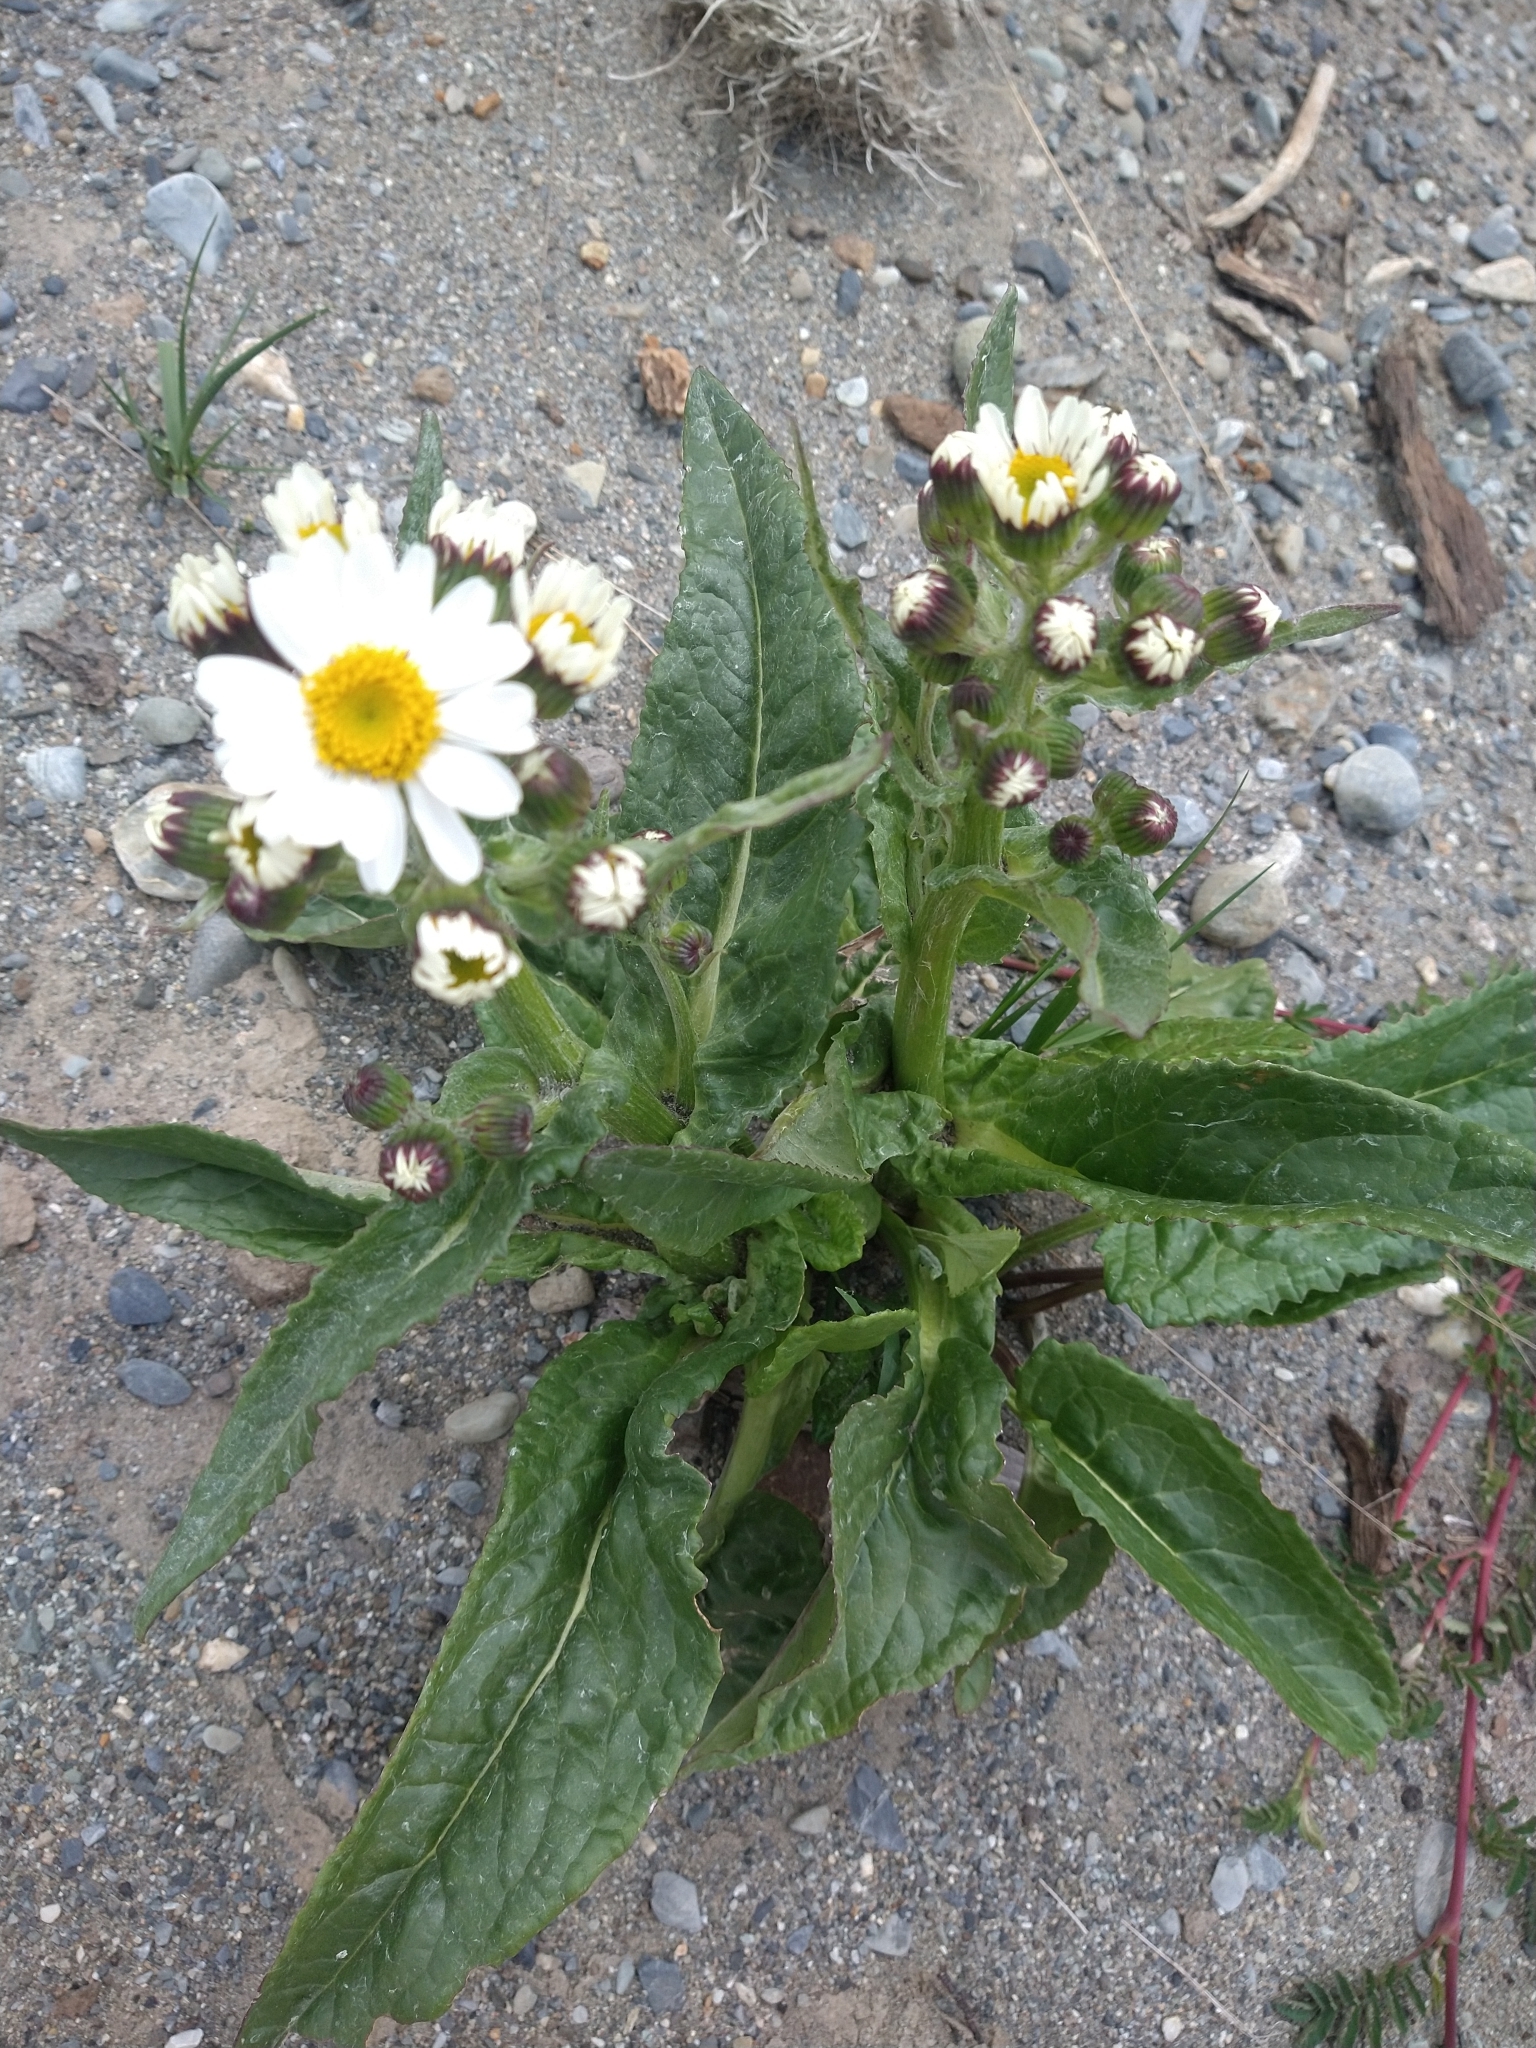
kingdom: Plantae
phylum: Tracheophyta
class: Magnoliopsida
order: Asterales
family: Asteraceae
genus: Senecio
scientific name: Senecio smithii
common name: Magellan ragwort
